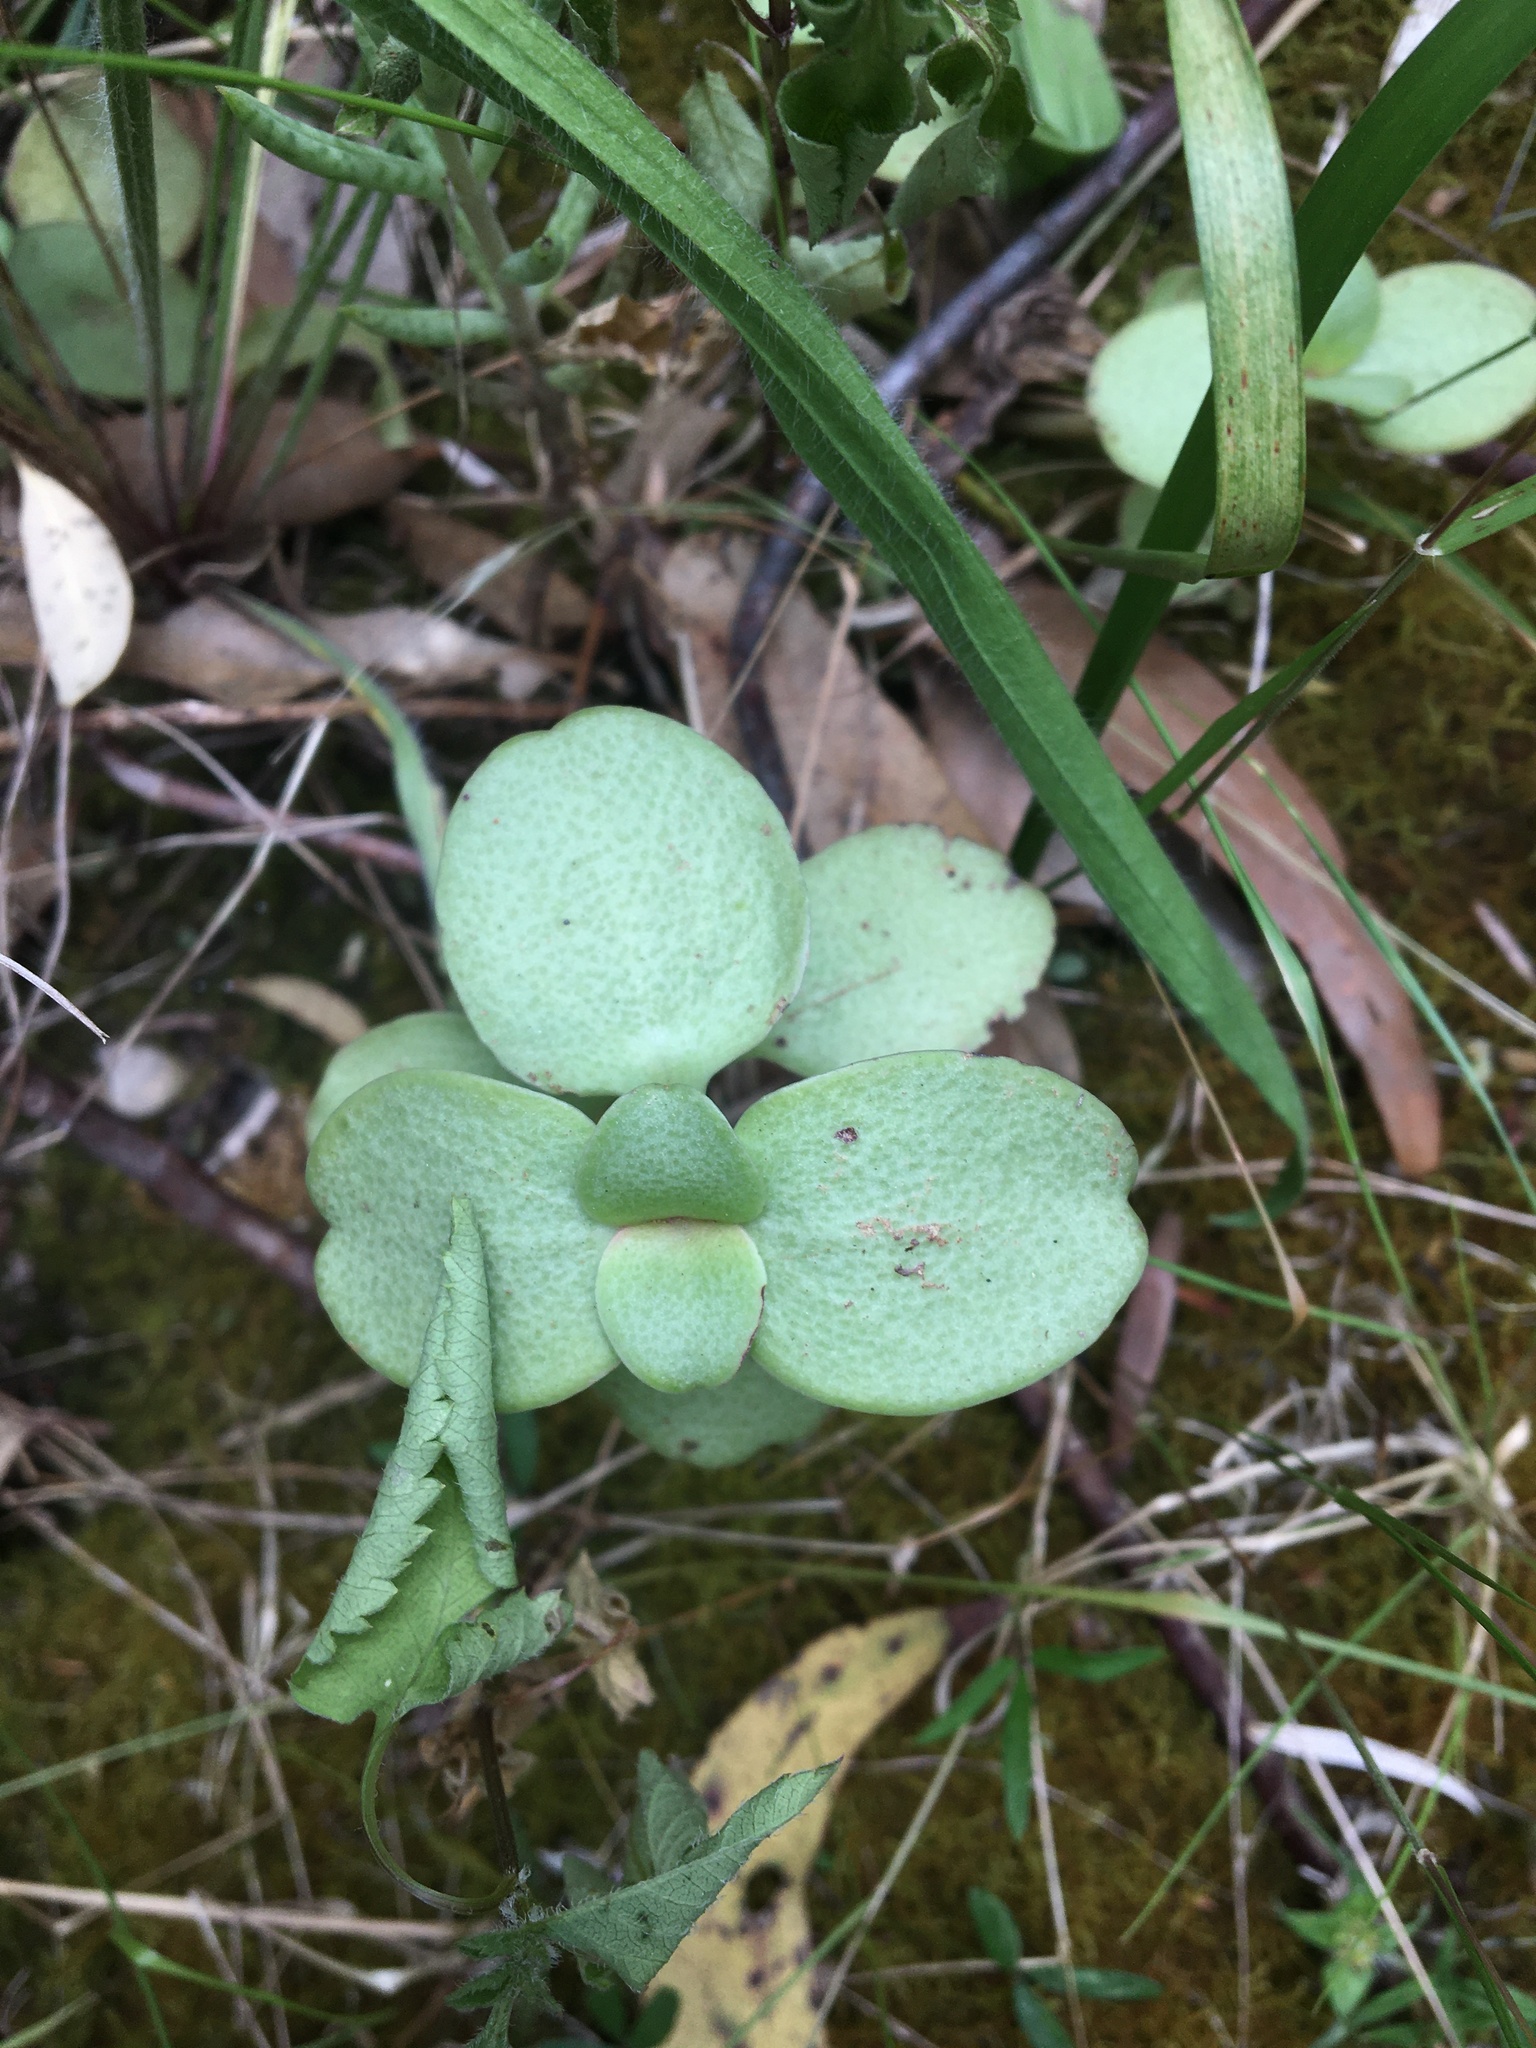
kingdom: Plantae
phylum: Tracheophyta
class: Magnoliopsida
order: Saxifragales
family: Crassulaceae
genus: Crassula
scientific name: Crassula multicava
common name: Cape province pygmyweed
